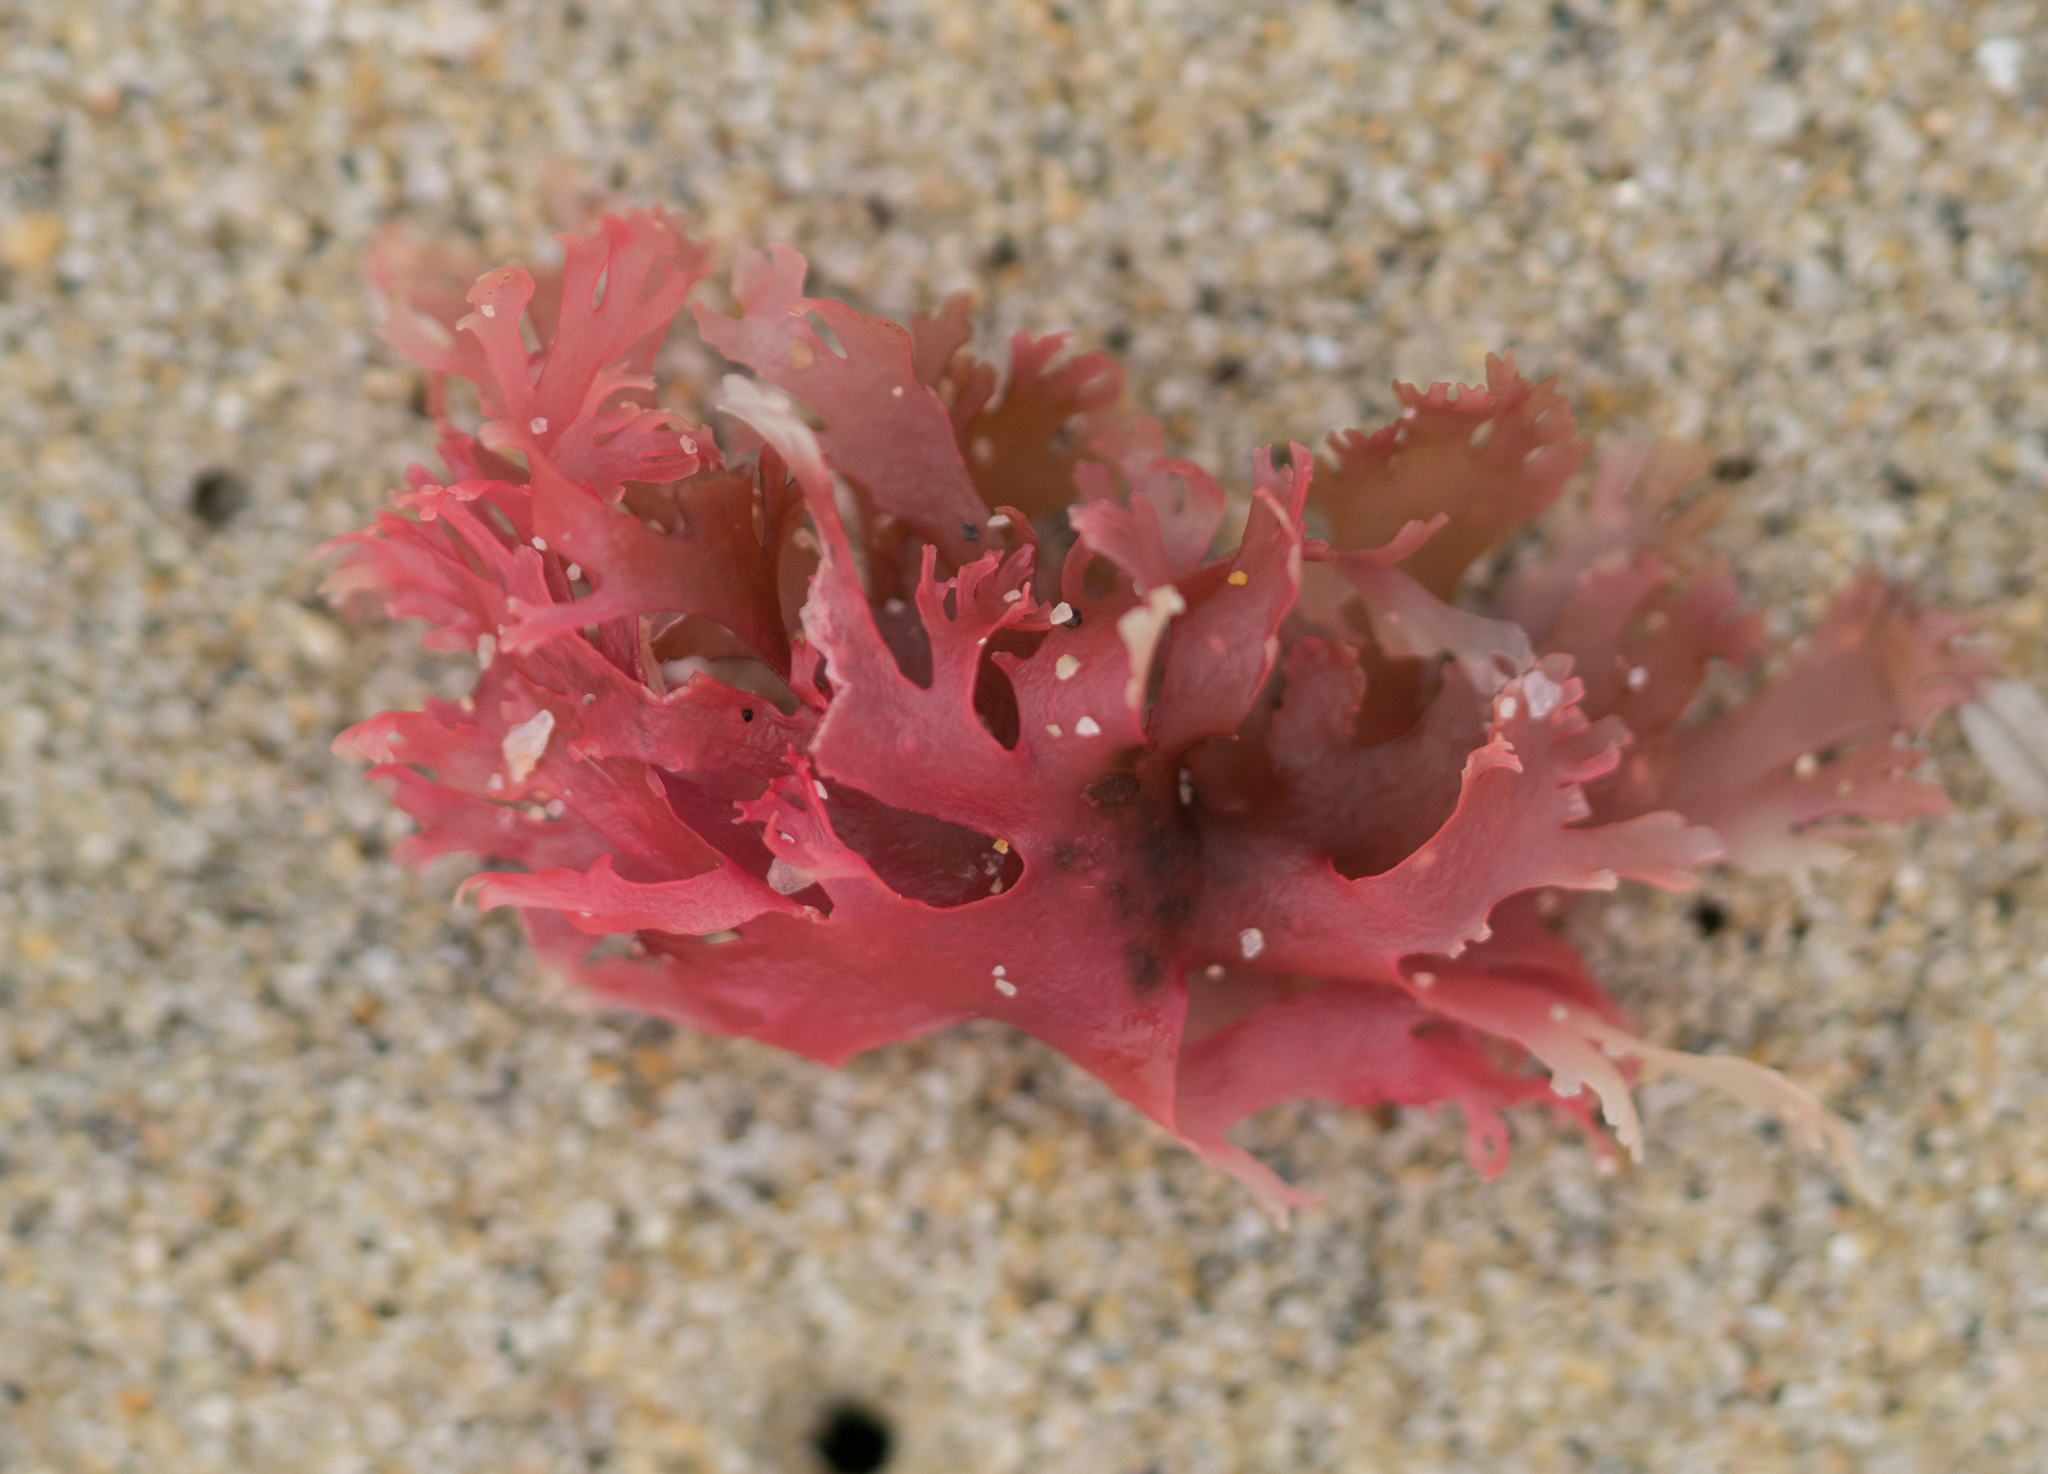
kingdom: Plantae
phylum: Rhodophyta
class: Florideophyceae
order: Gigartinales
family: Kallymeniaceae
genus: Callophyllis
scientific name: Callophyllis flabellulata
